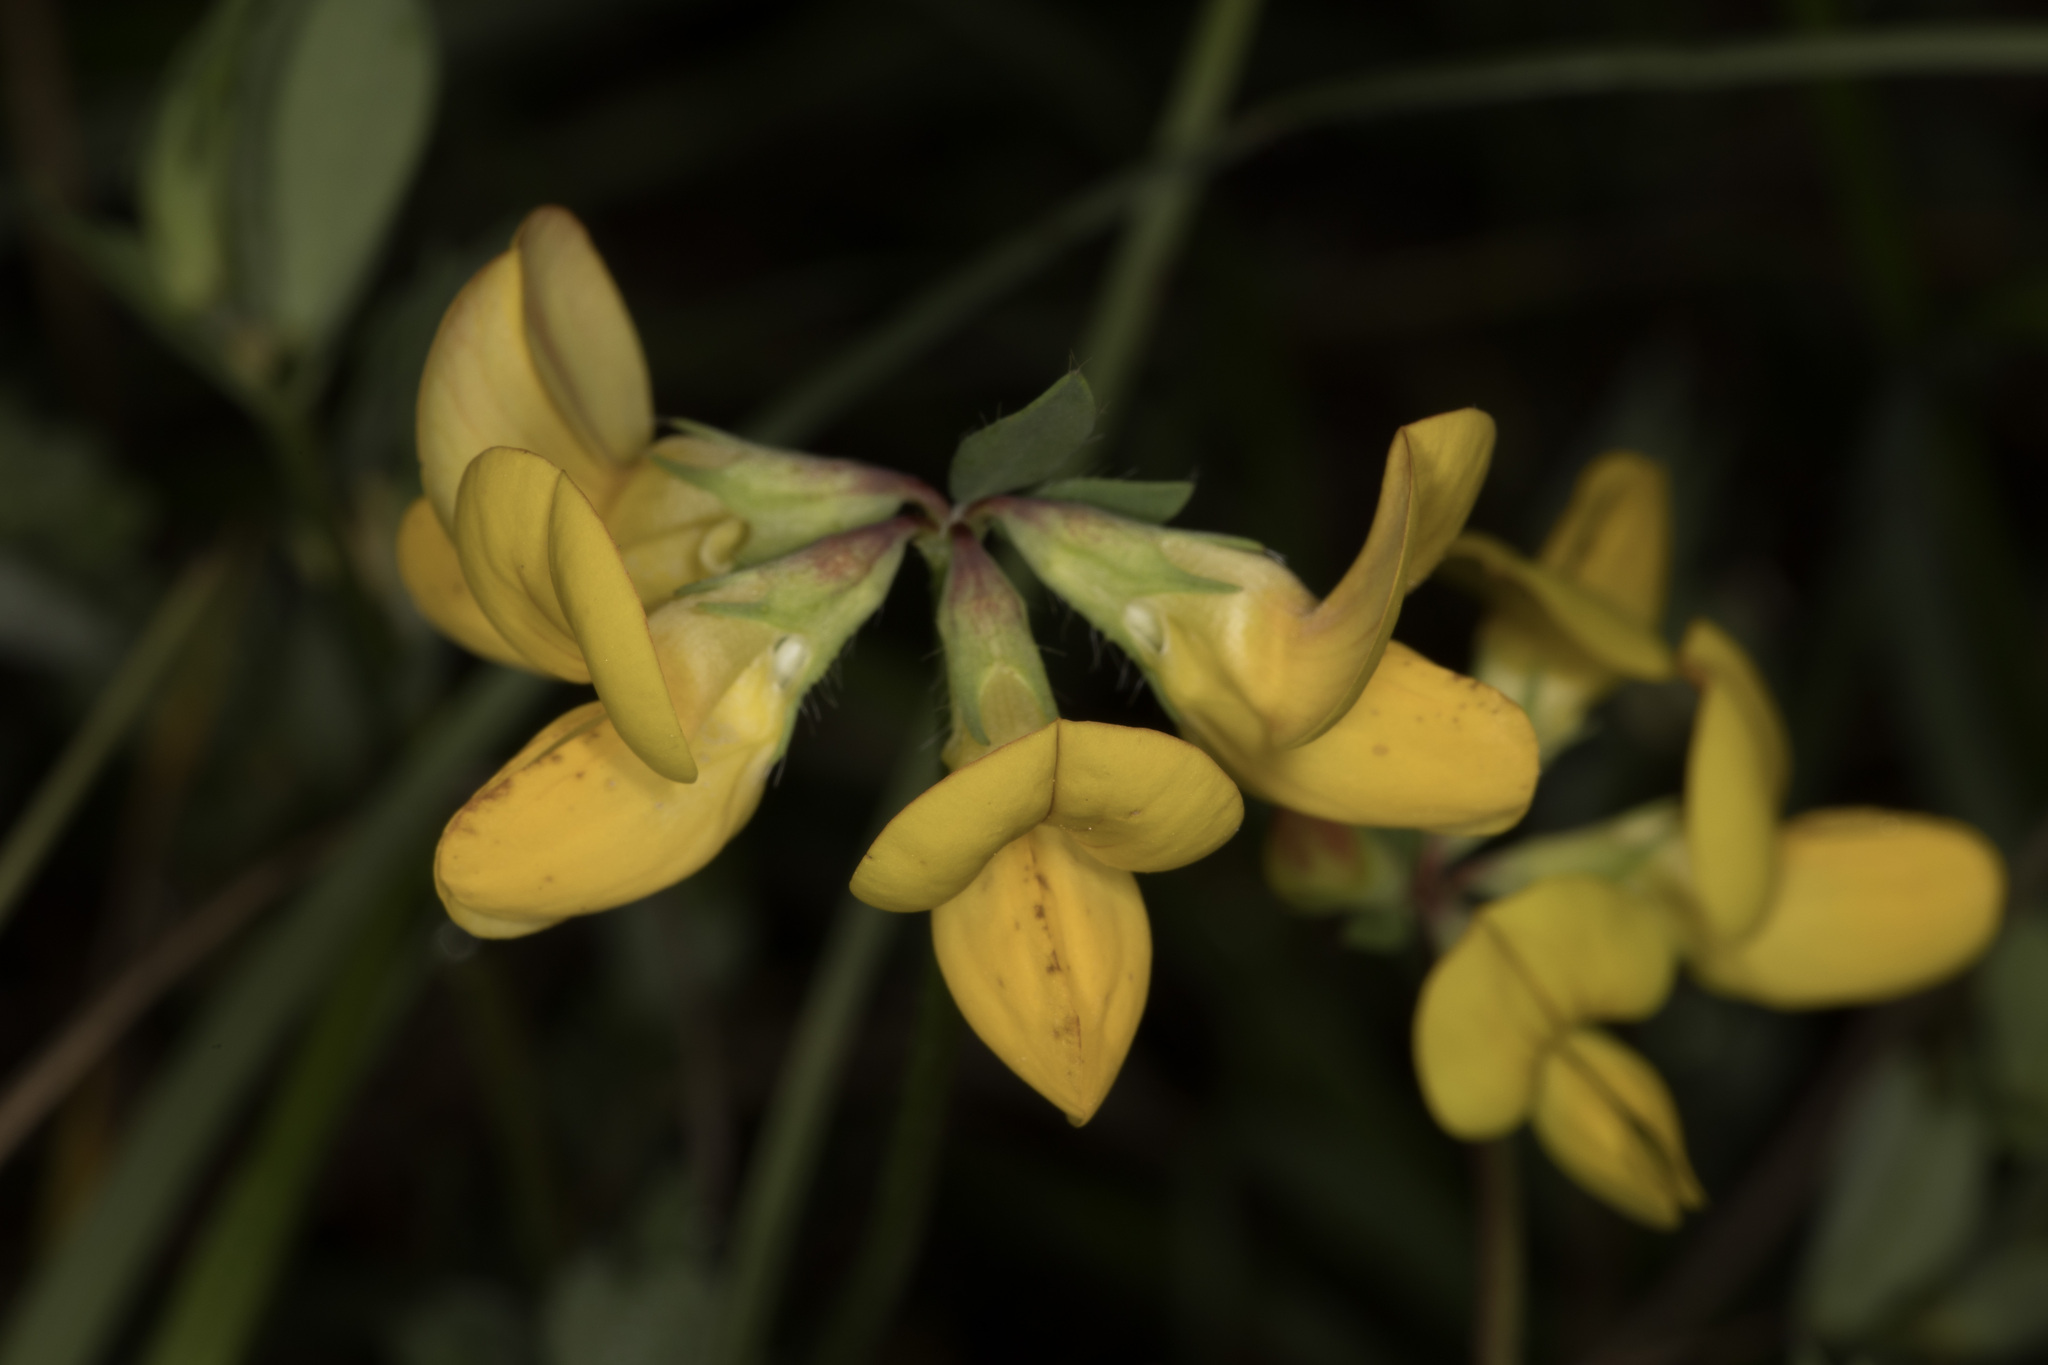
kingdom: Plantae
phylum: Tracheophyta
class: Magnoliopsida
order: Fabales
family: Fabaceae
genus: Lotus
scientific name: Lotus corniculatus
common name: Common bird's-foot-trefoil
